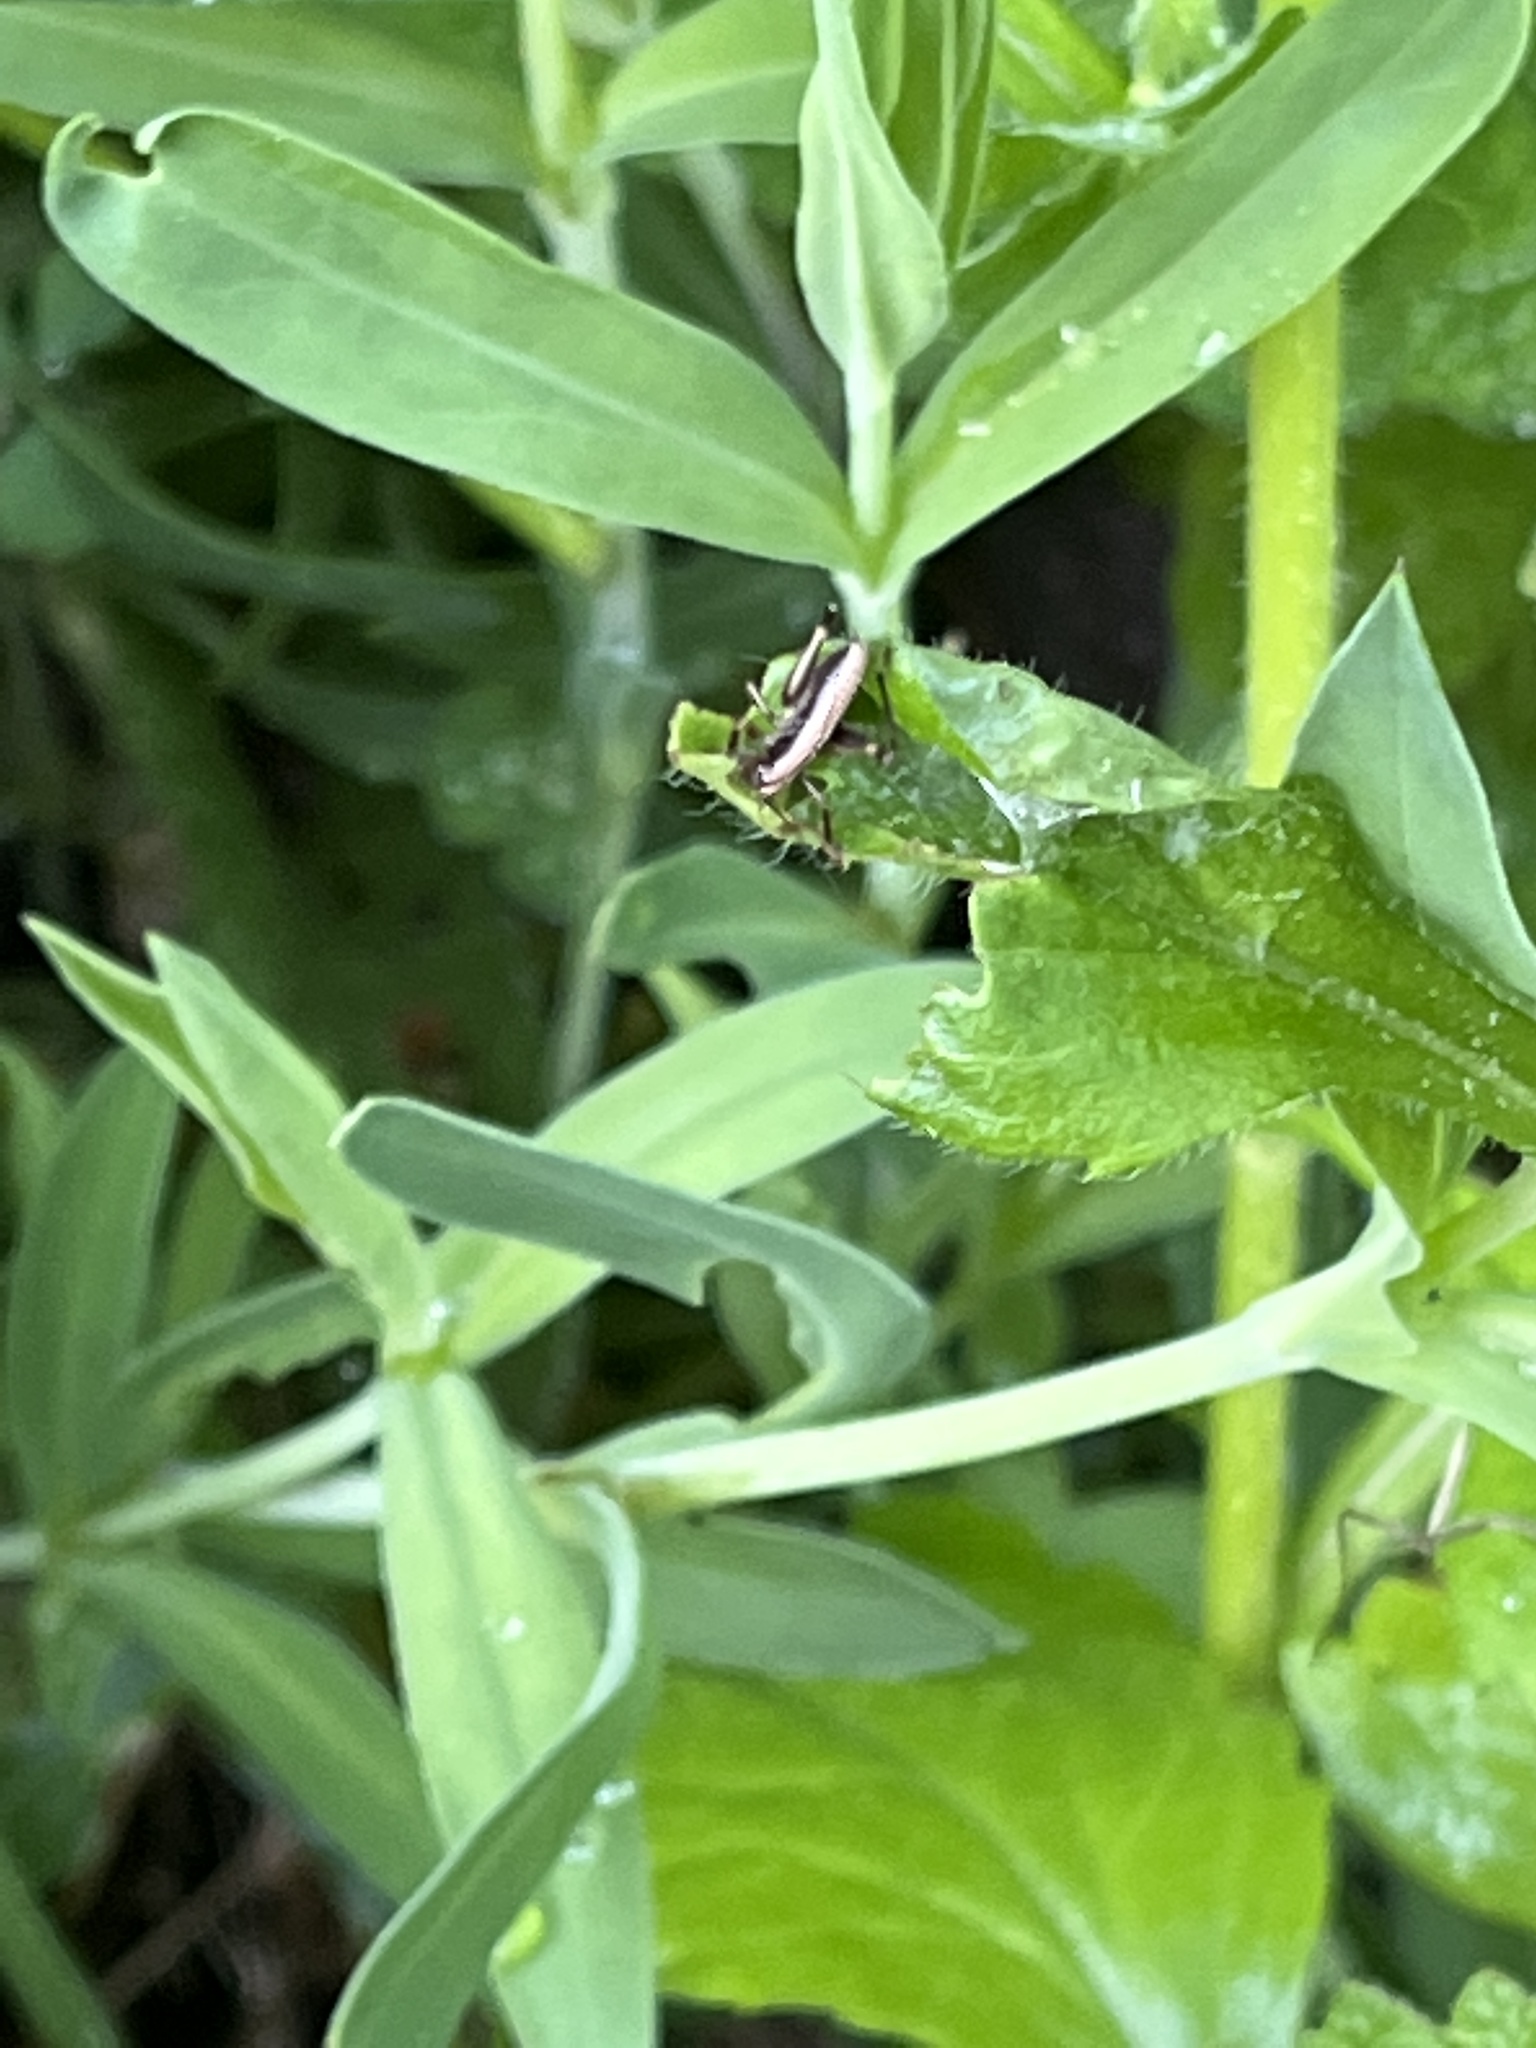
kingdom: Animalia
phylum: Arthropoda
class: Insecta
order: Orthoptera
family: Tettigoniidae
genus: Pholidoptera
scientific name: Pholidoptera griseoaptera
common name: Dark bush-cricket
